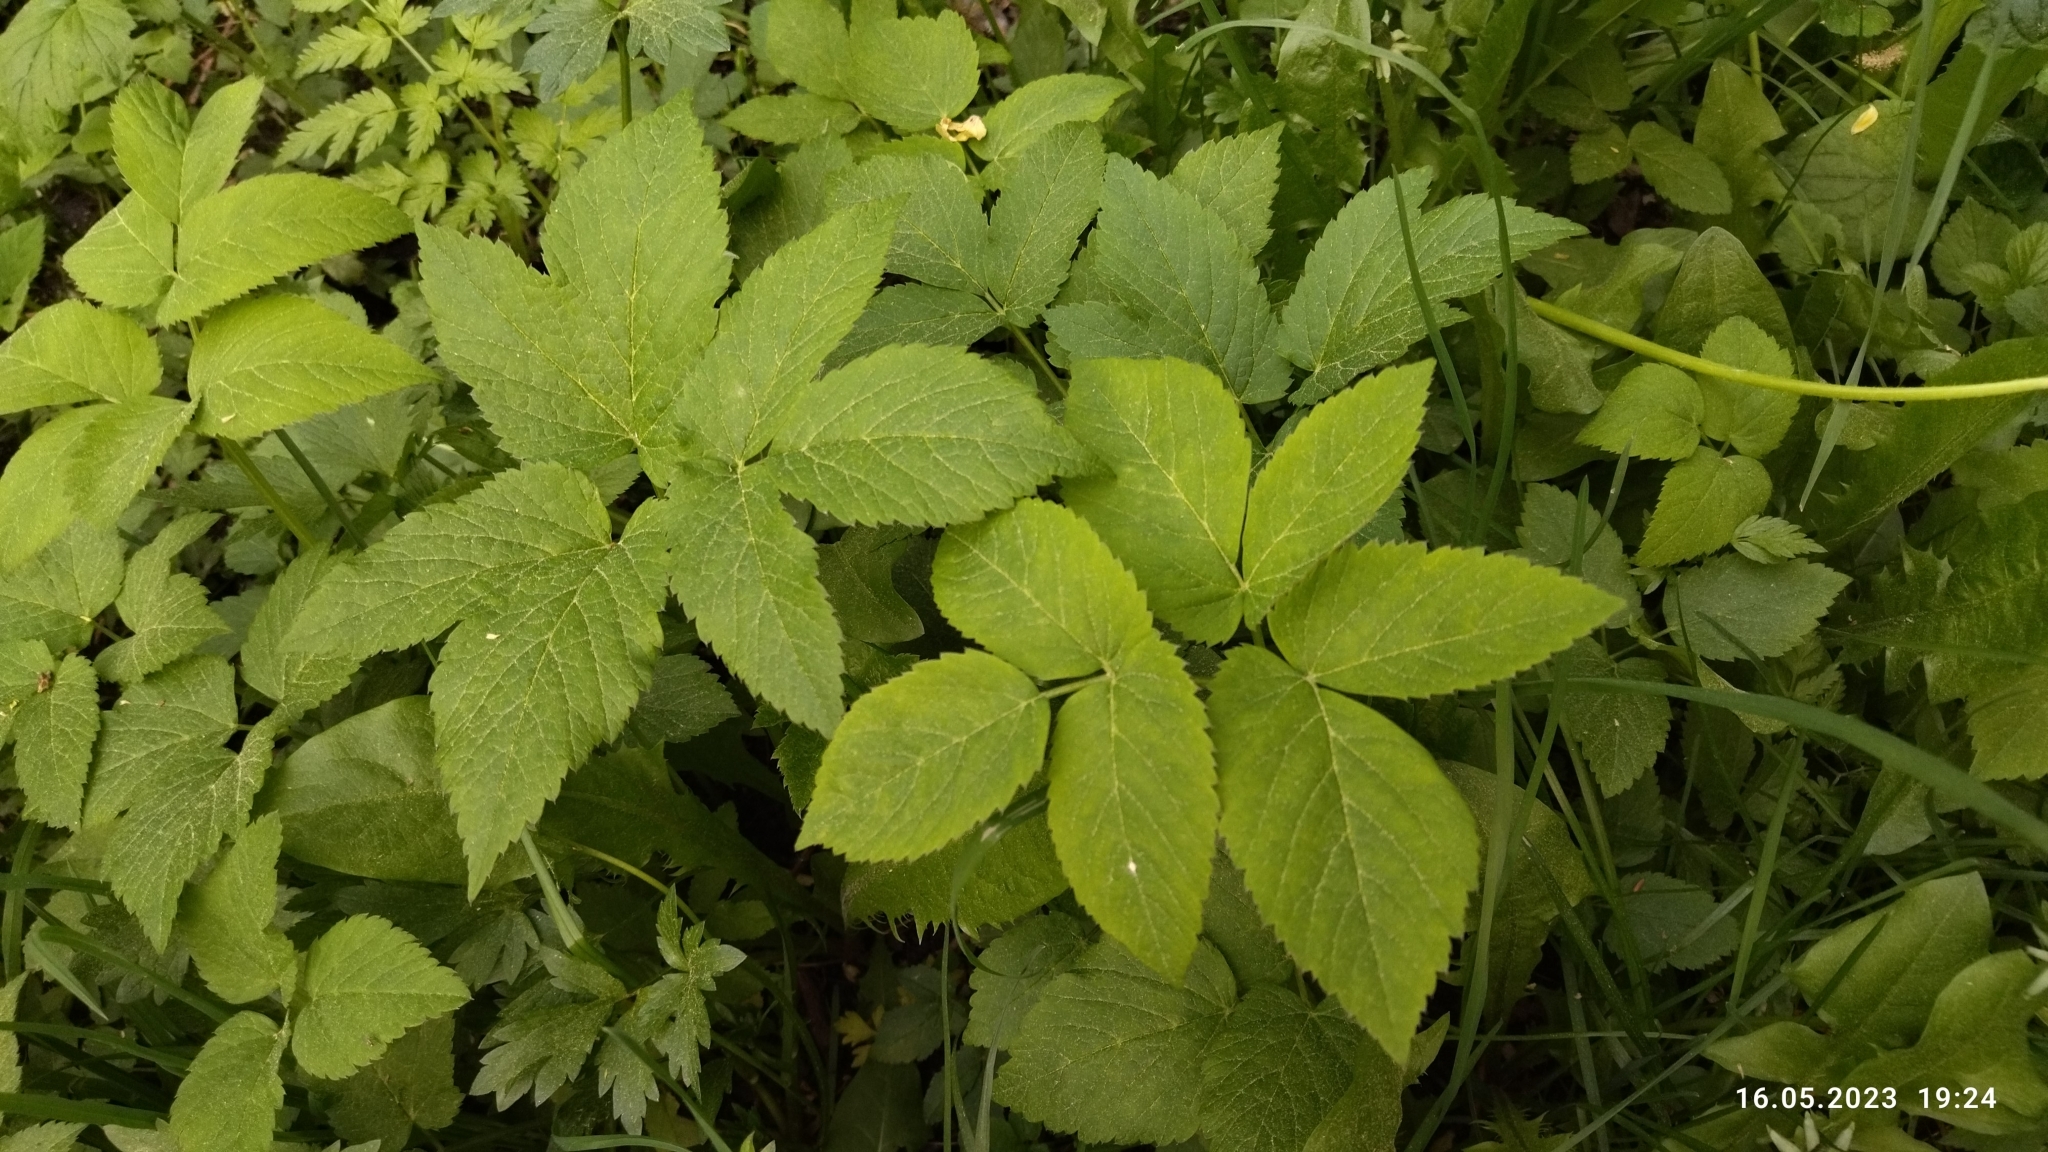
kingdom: Plantae
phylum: Tracheophyta
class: Magnoliopsida
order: Apiales
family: Apiaceae
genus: Aegopodium
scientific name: Aegopodium podagraria
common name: Ground-elder
